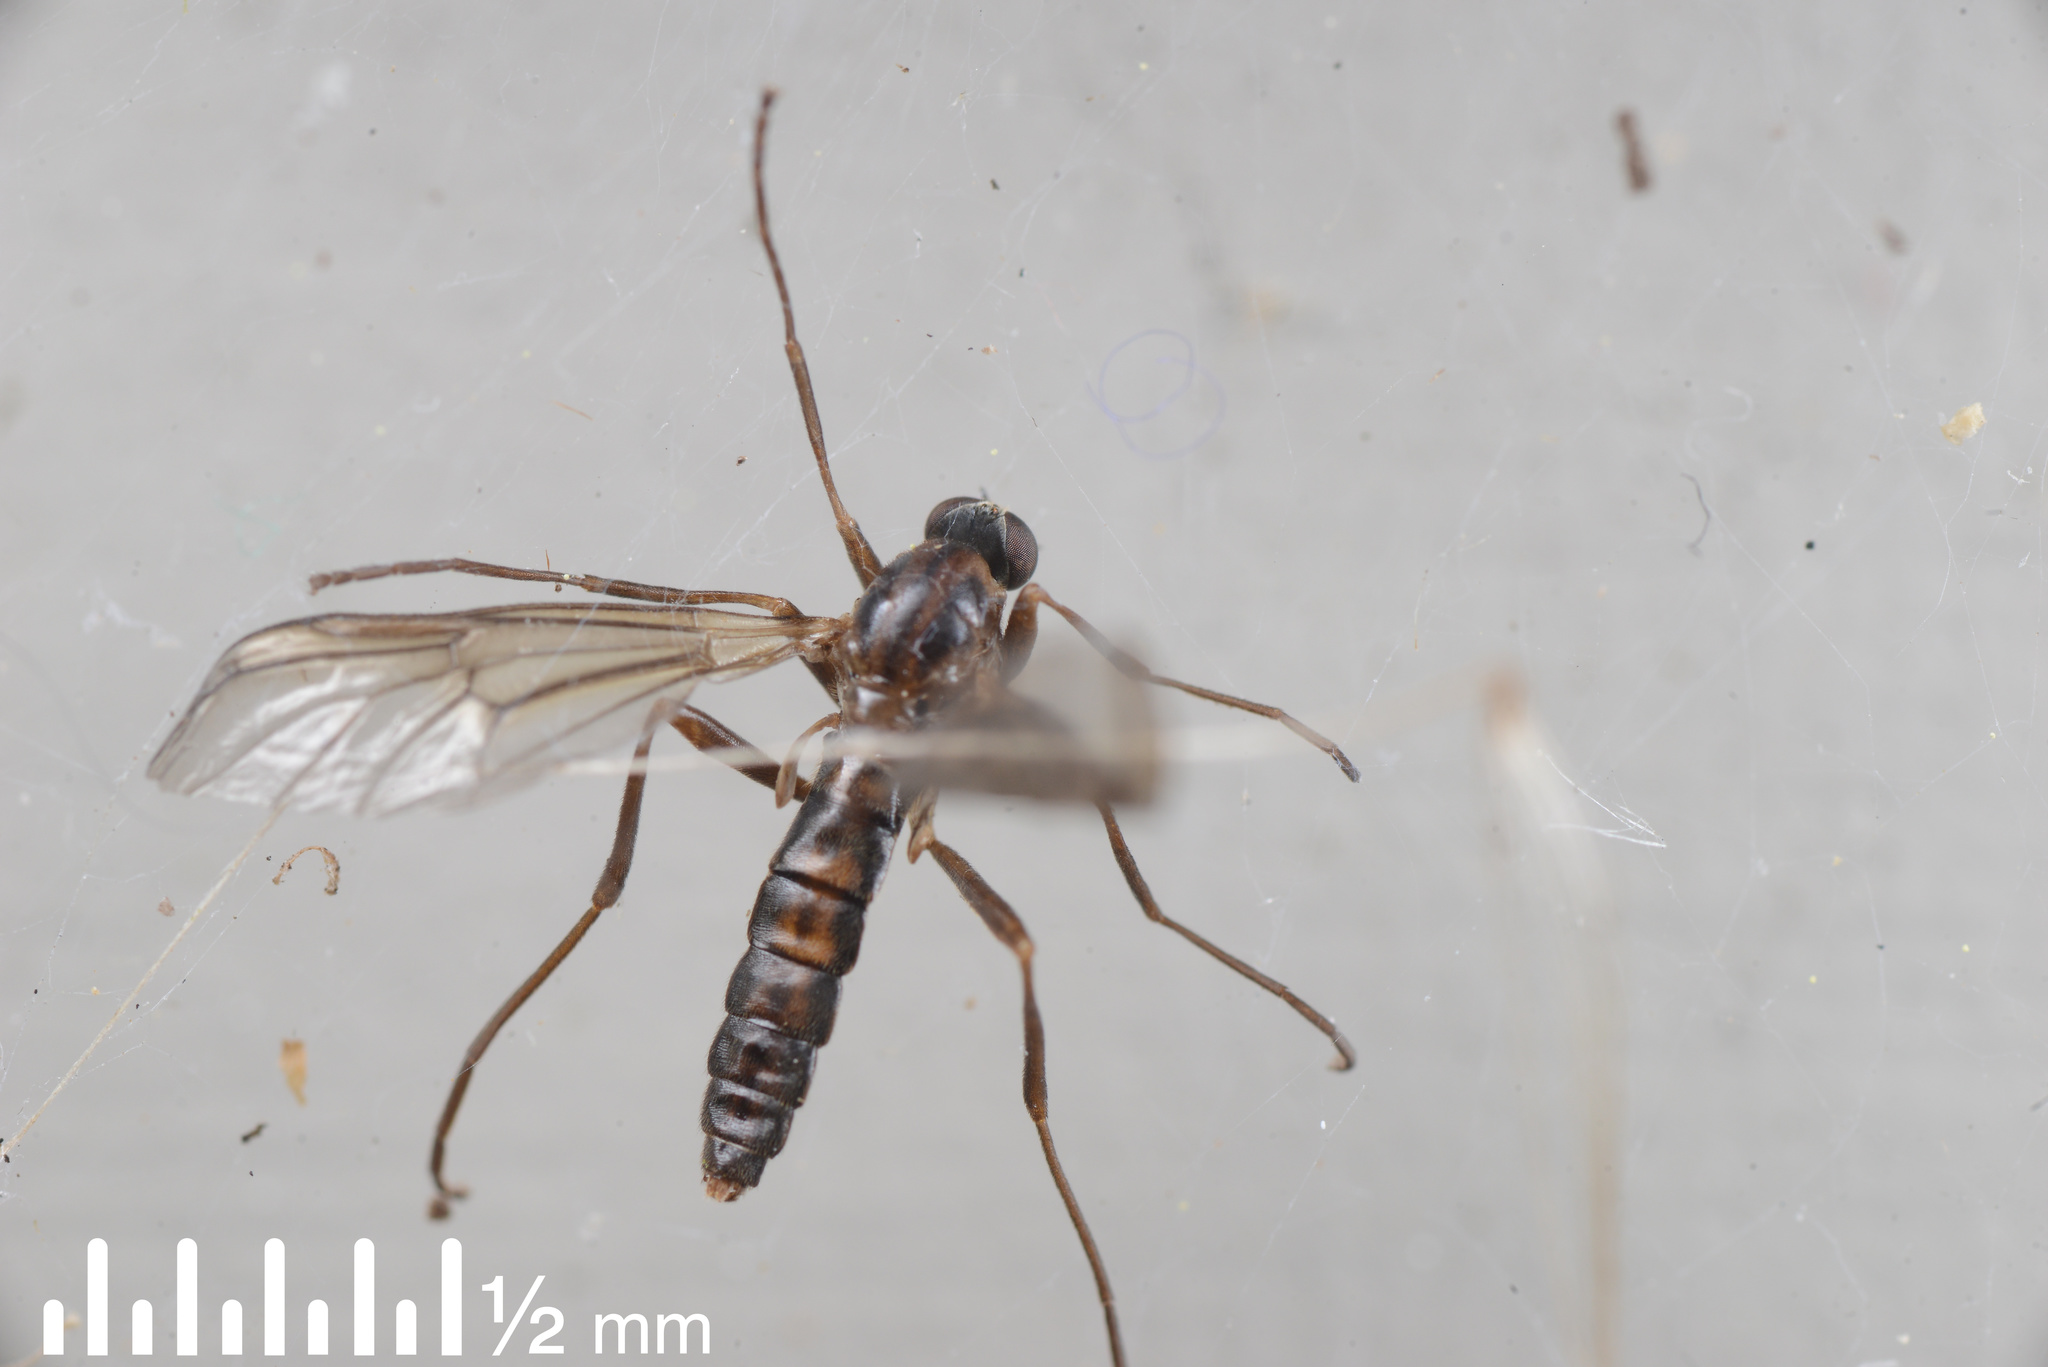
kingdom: Animalia
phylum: Arthropoda
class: Insecta
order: Diptera
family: Stratiomyidae
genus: Boreoides
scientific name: Boreoides tasmaniensis
